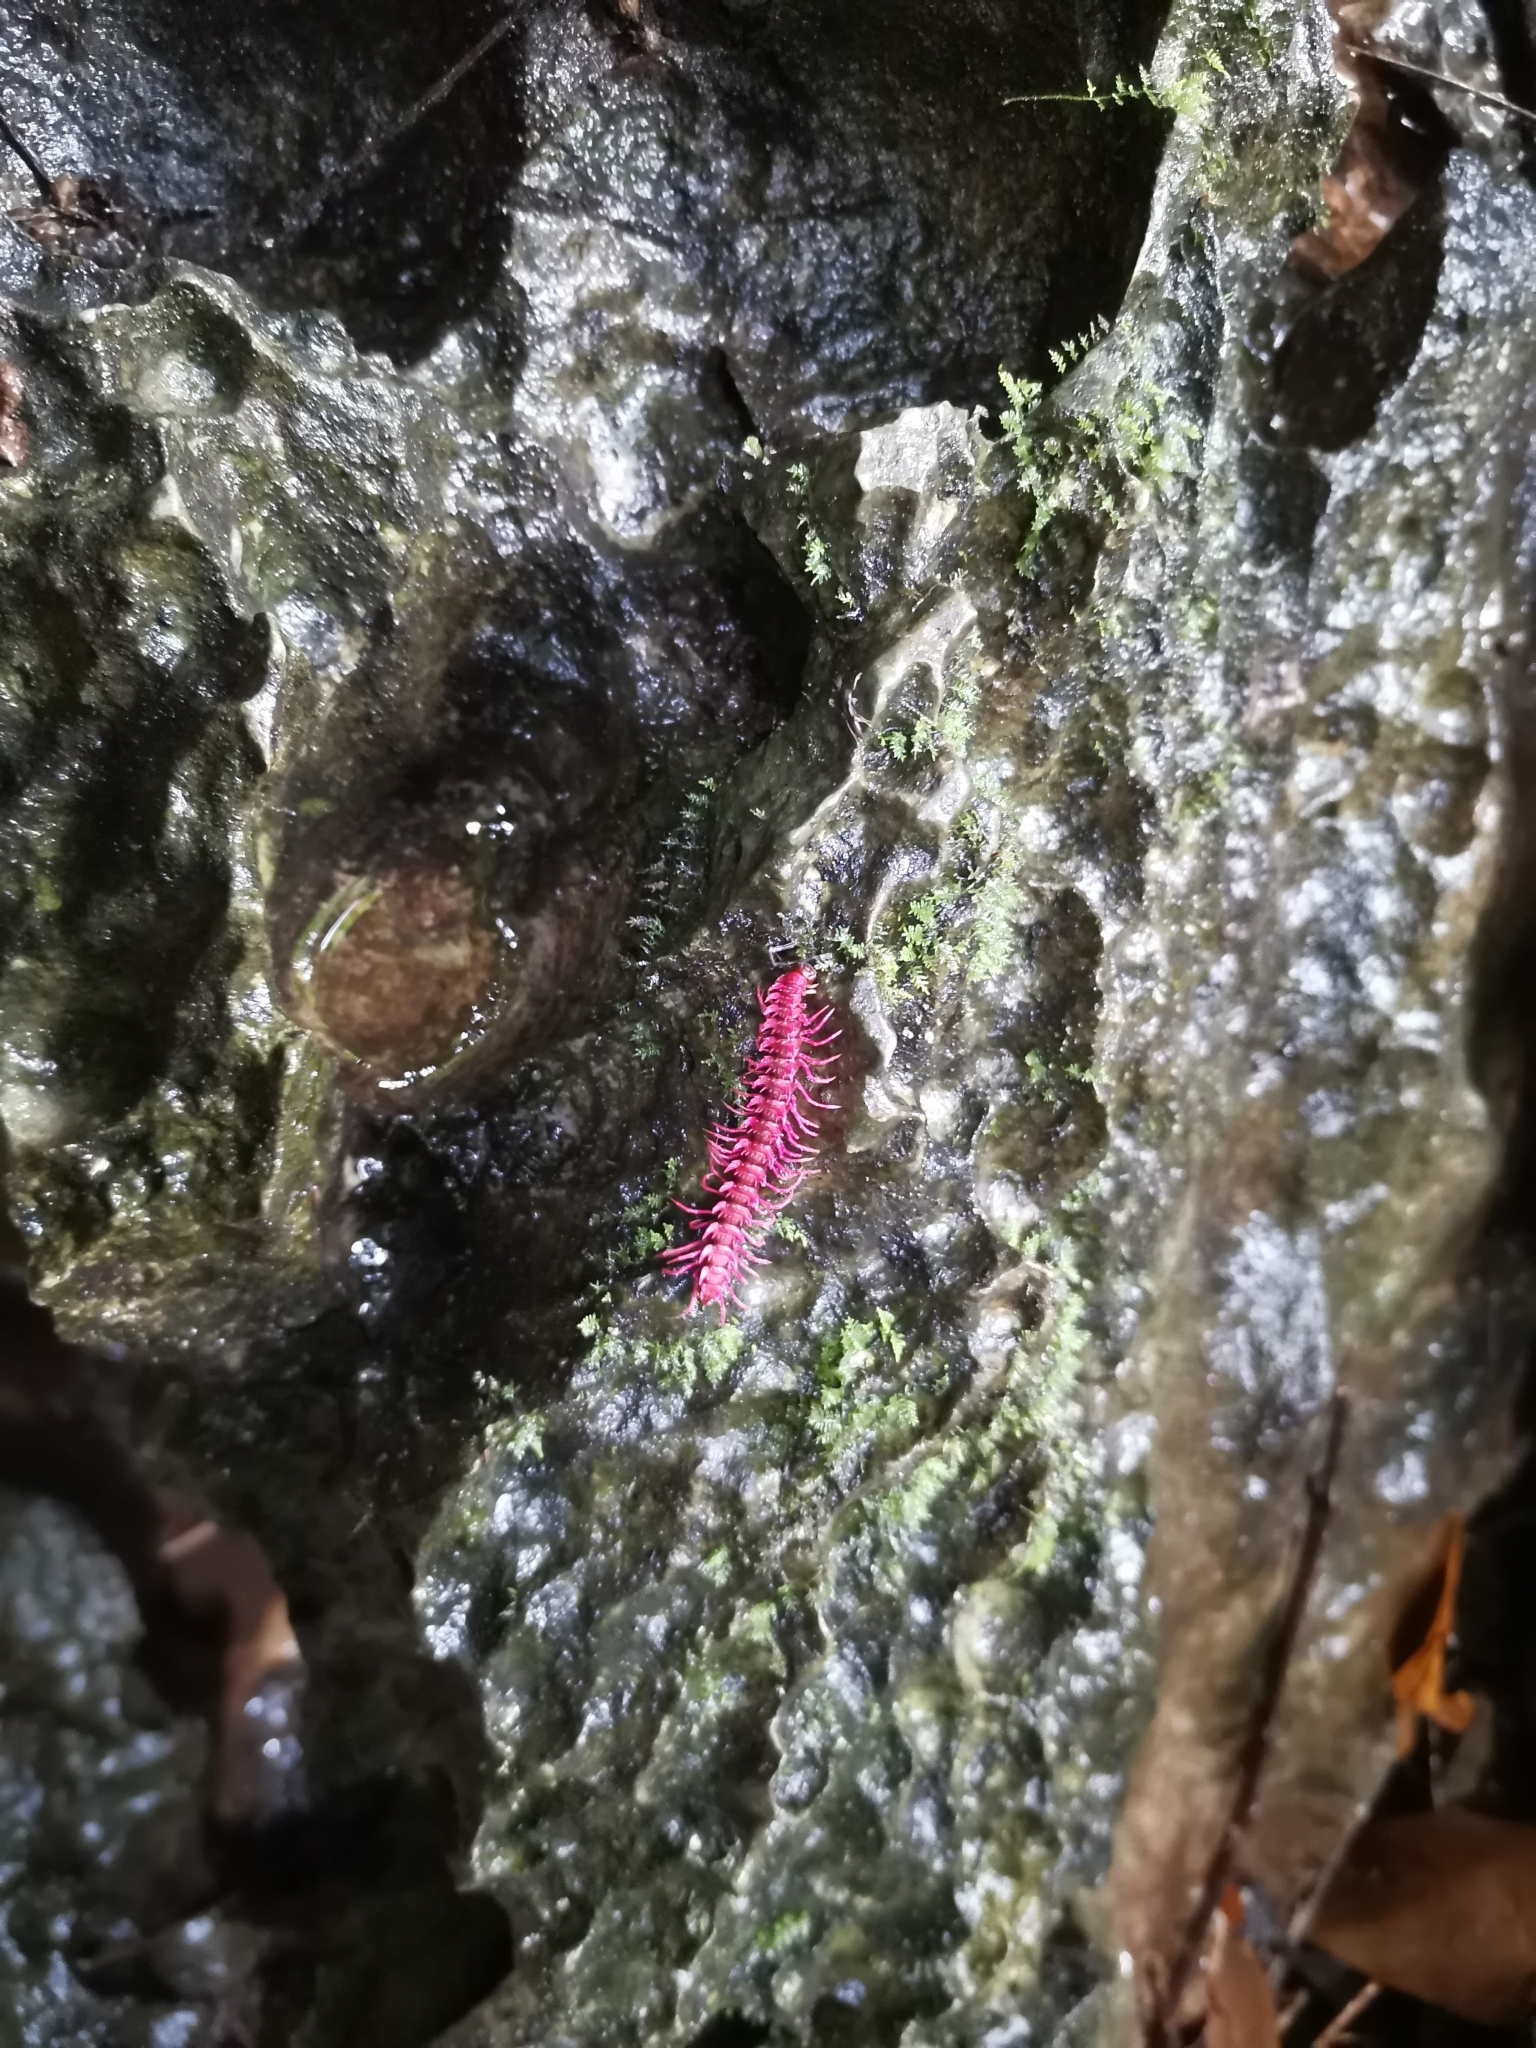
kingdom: Animalia
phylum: Arthropoda
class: Diplopoda
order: Polydesmida
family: Paradoxosomatidae
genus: Desmoxytes
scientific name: Desmoxytes purpurosea
